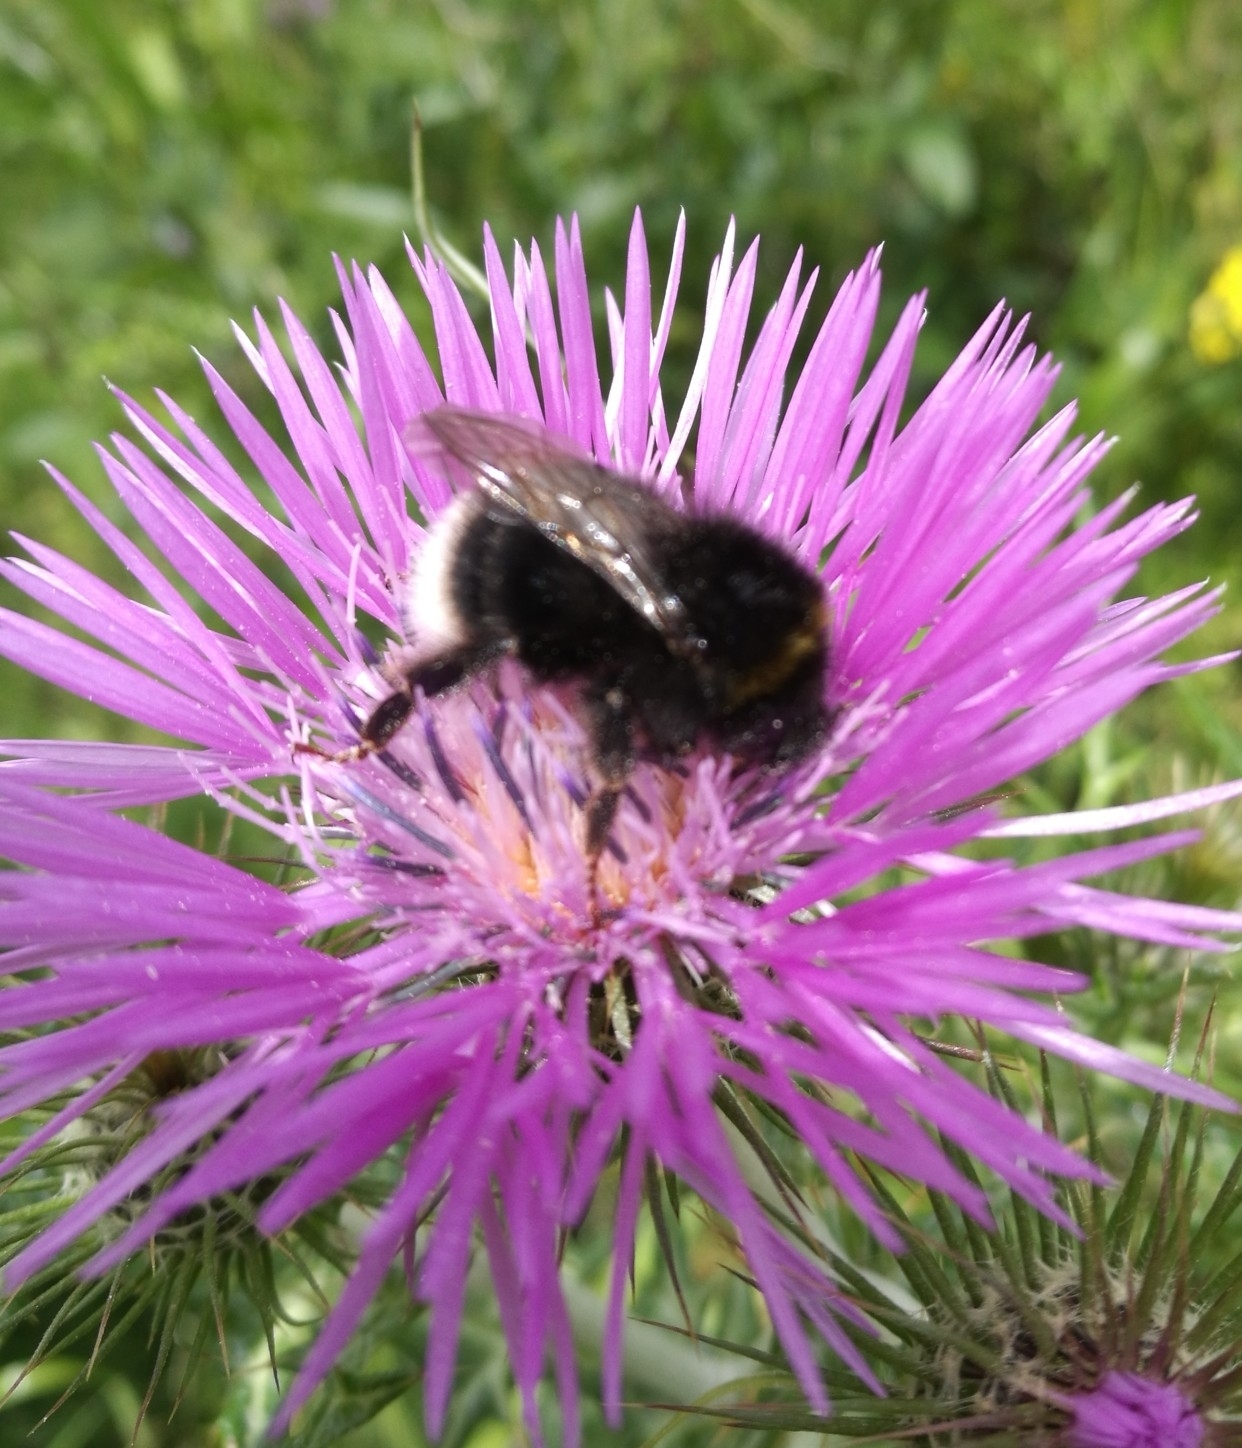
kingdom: Animalia
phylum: Arthropoda
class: Insecta
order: Hymenoptera
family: Apidae
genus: Bombus
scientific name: Bombus terrestris
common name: Buff-tailed bumblebee
